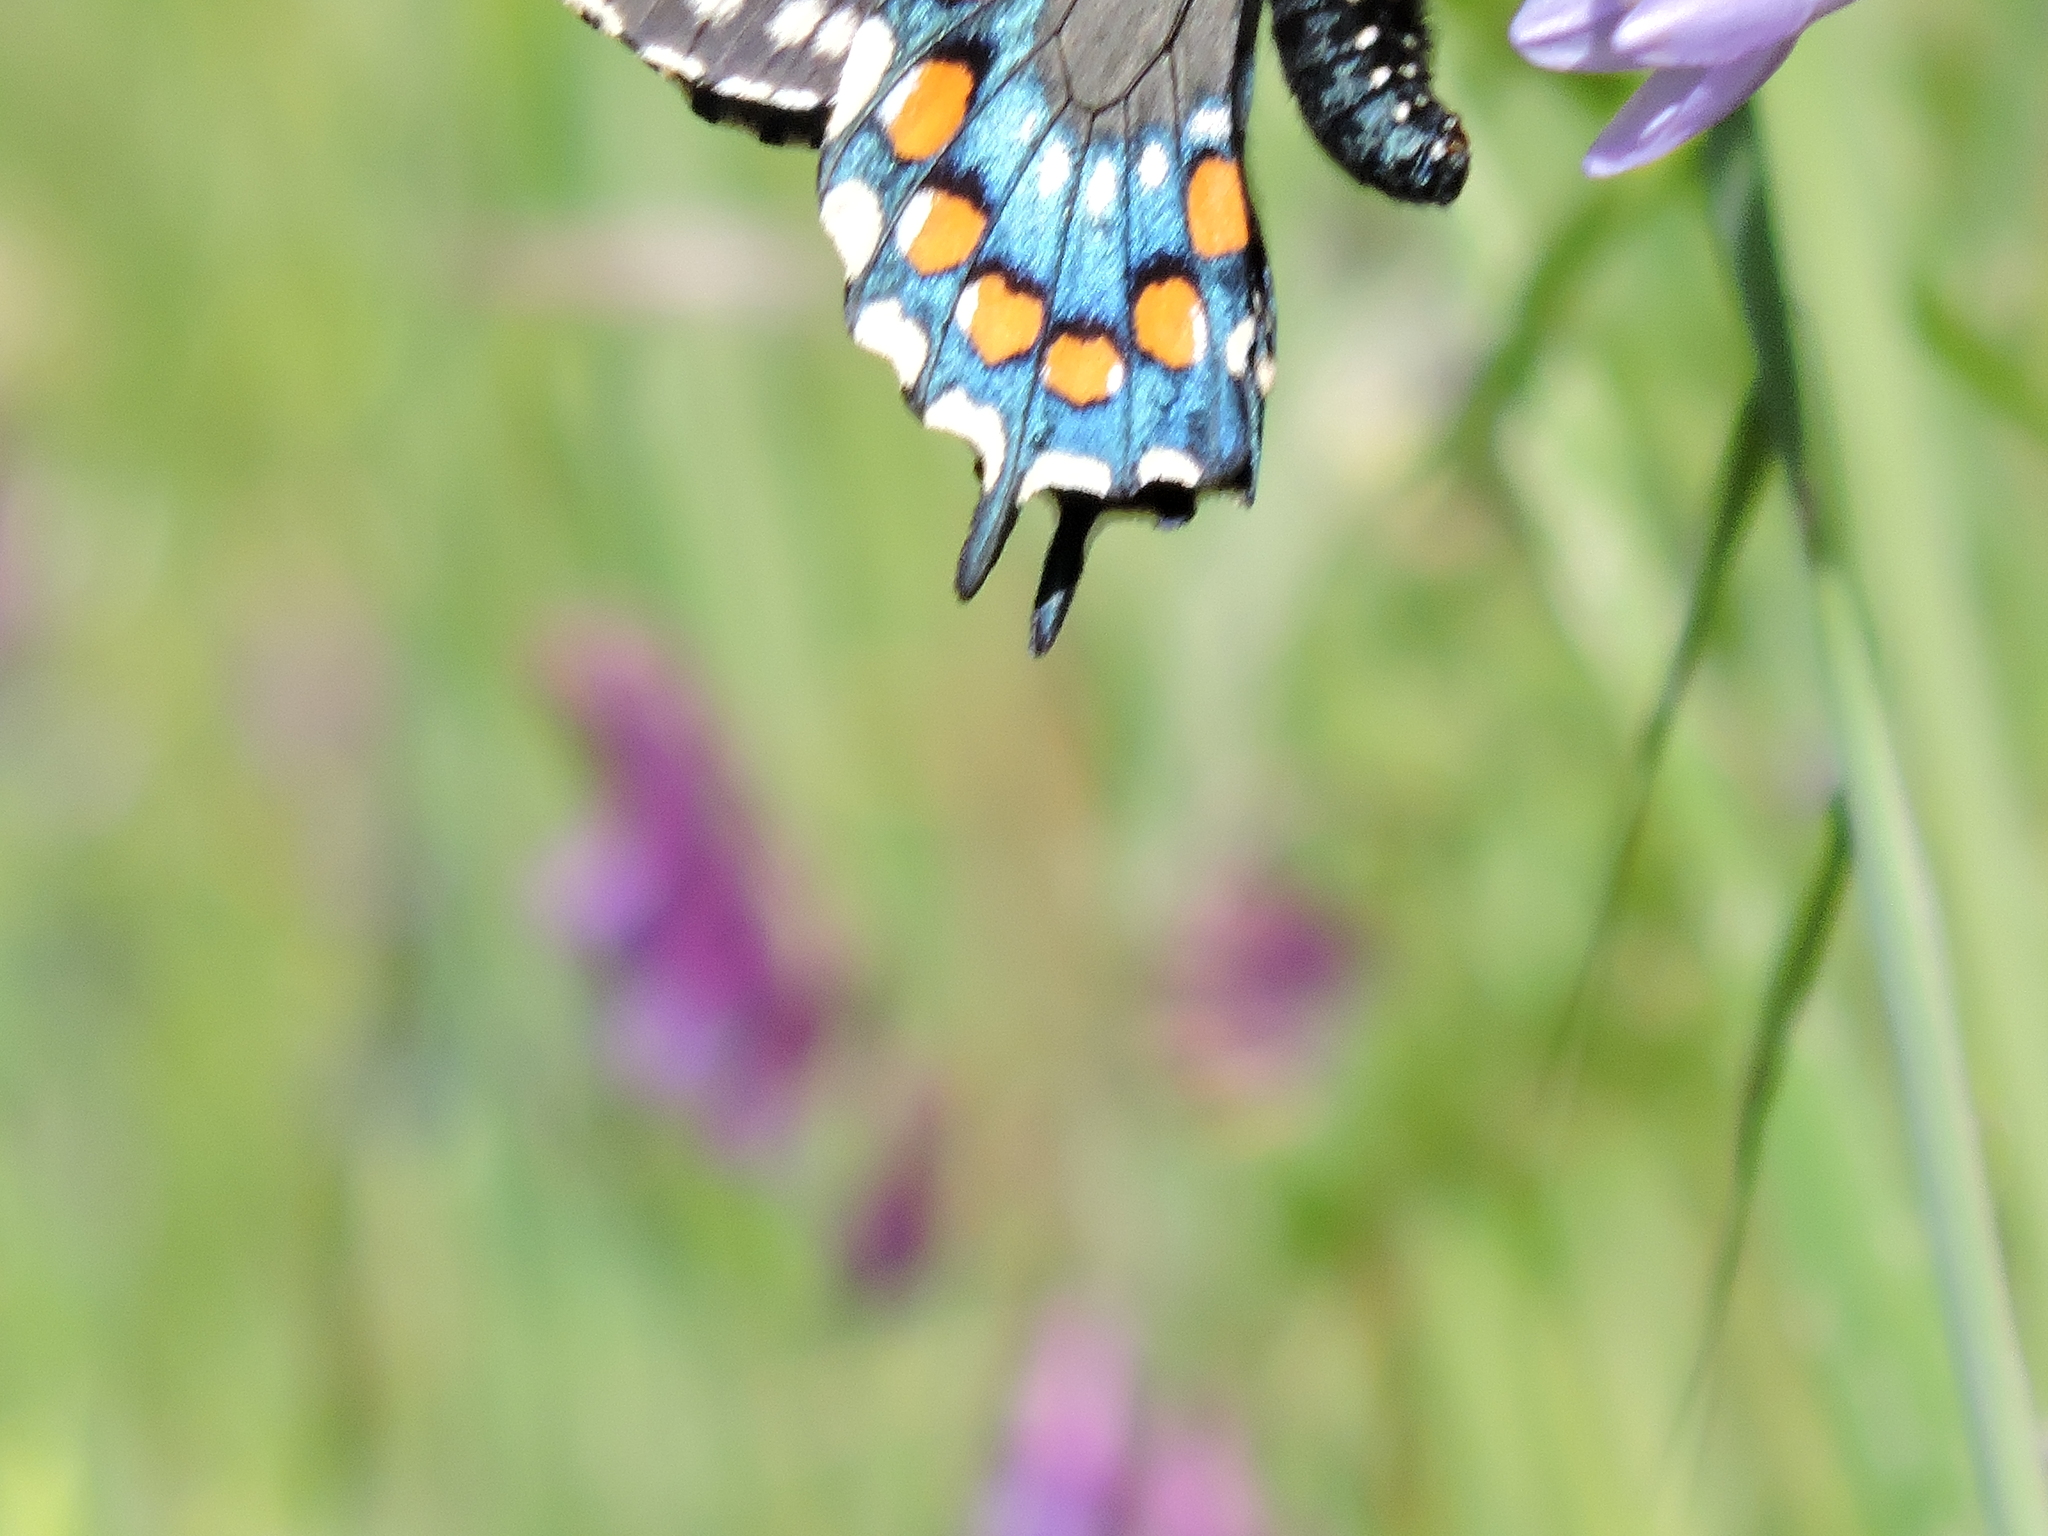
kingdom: Animalia
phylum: Arthropoda
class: Insecta
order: Lepidoptera
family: Papilionidae
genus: Battus
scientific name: Battus philenor
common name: Pipevine swallowtail
